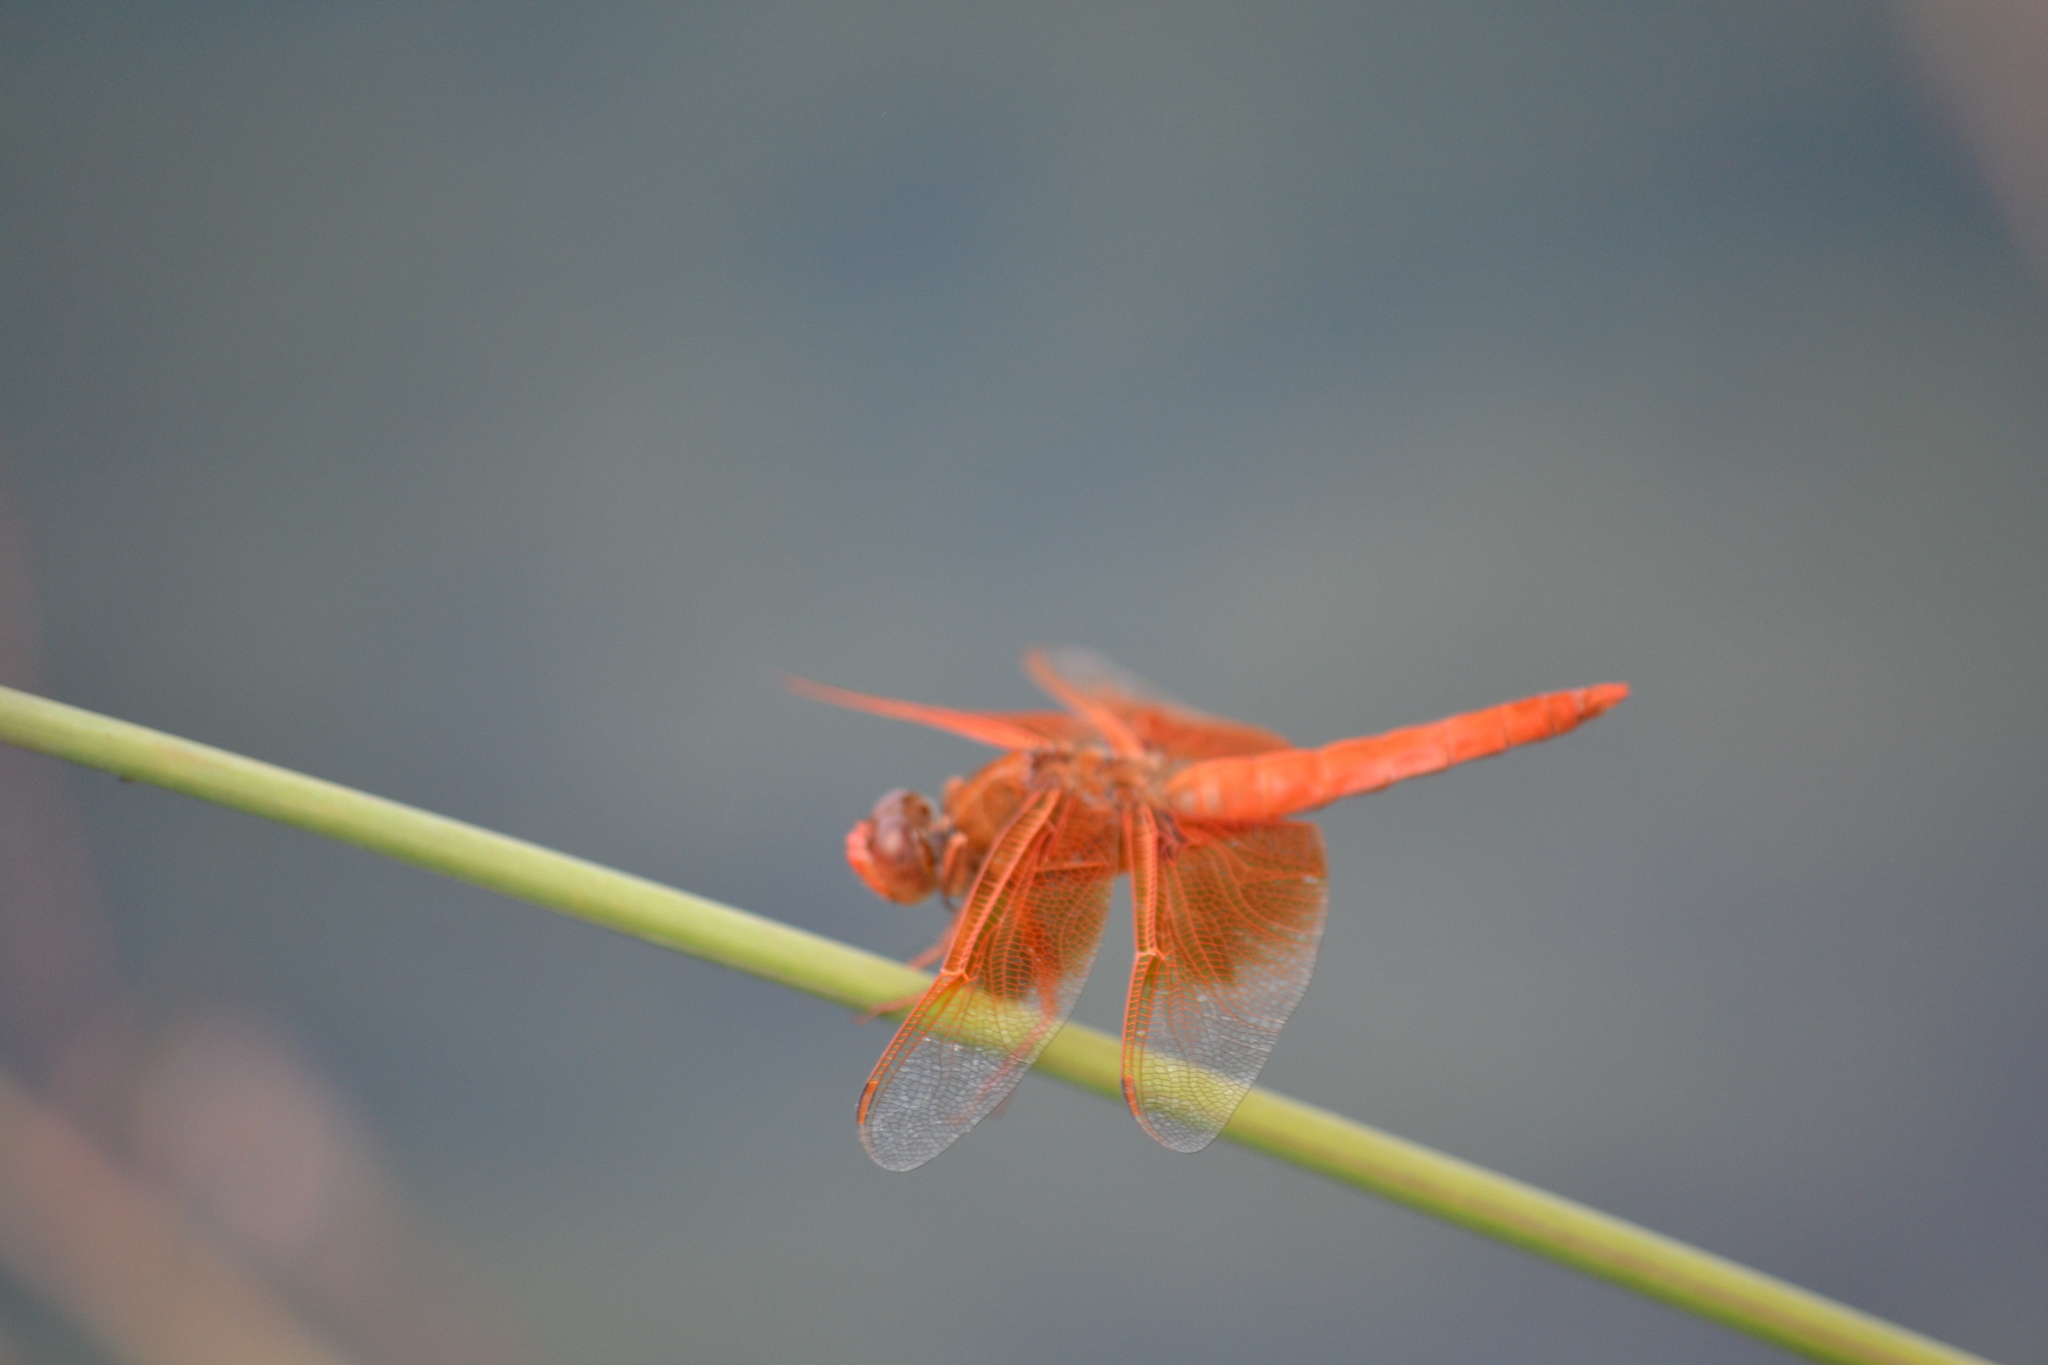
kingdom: Animalia
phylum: Arthropoda
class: Insecta
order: Odonata
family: Libellulidae
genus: Libellula
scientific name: Libellula saturata
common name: Flame skimmer
